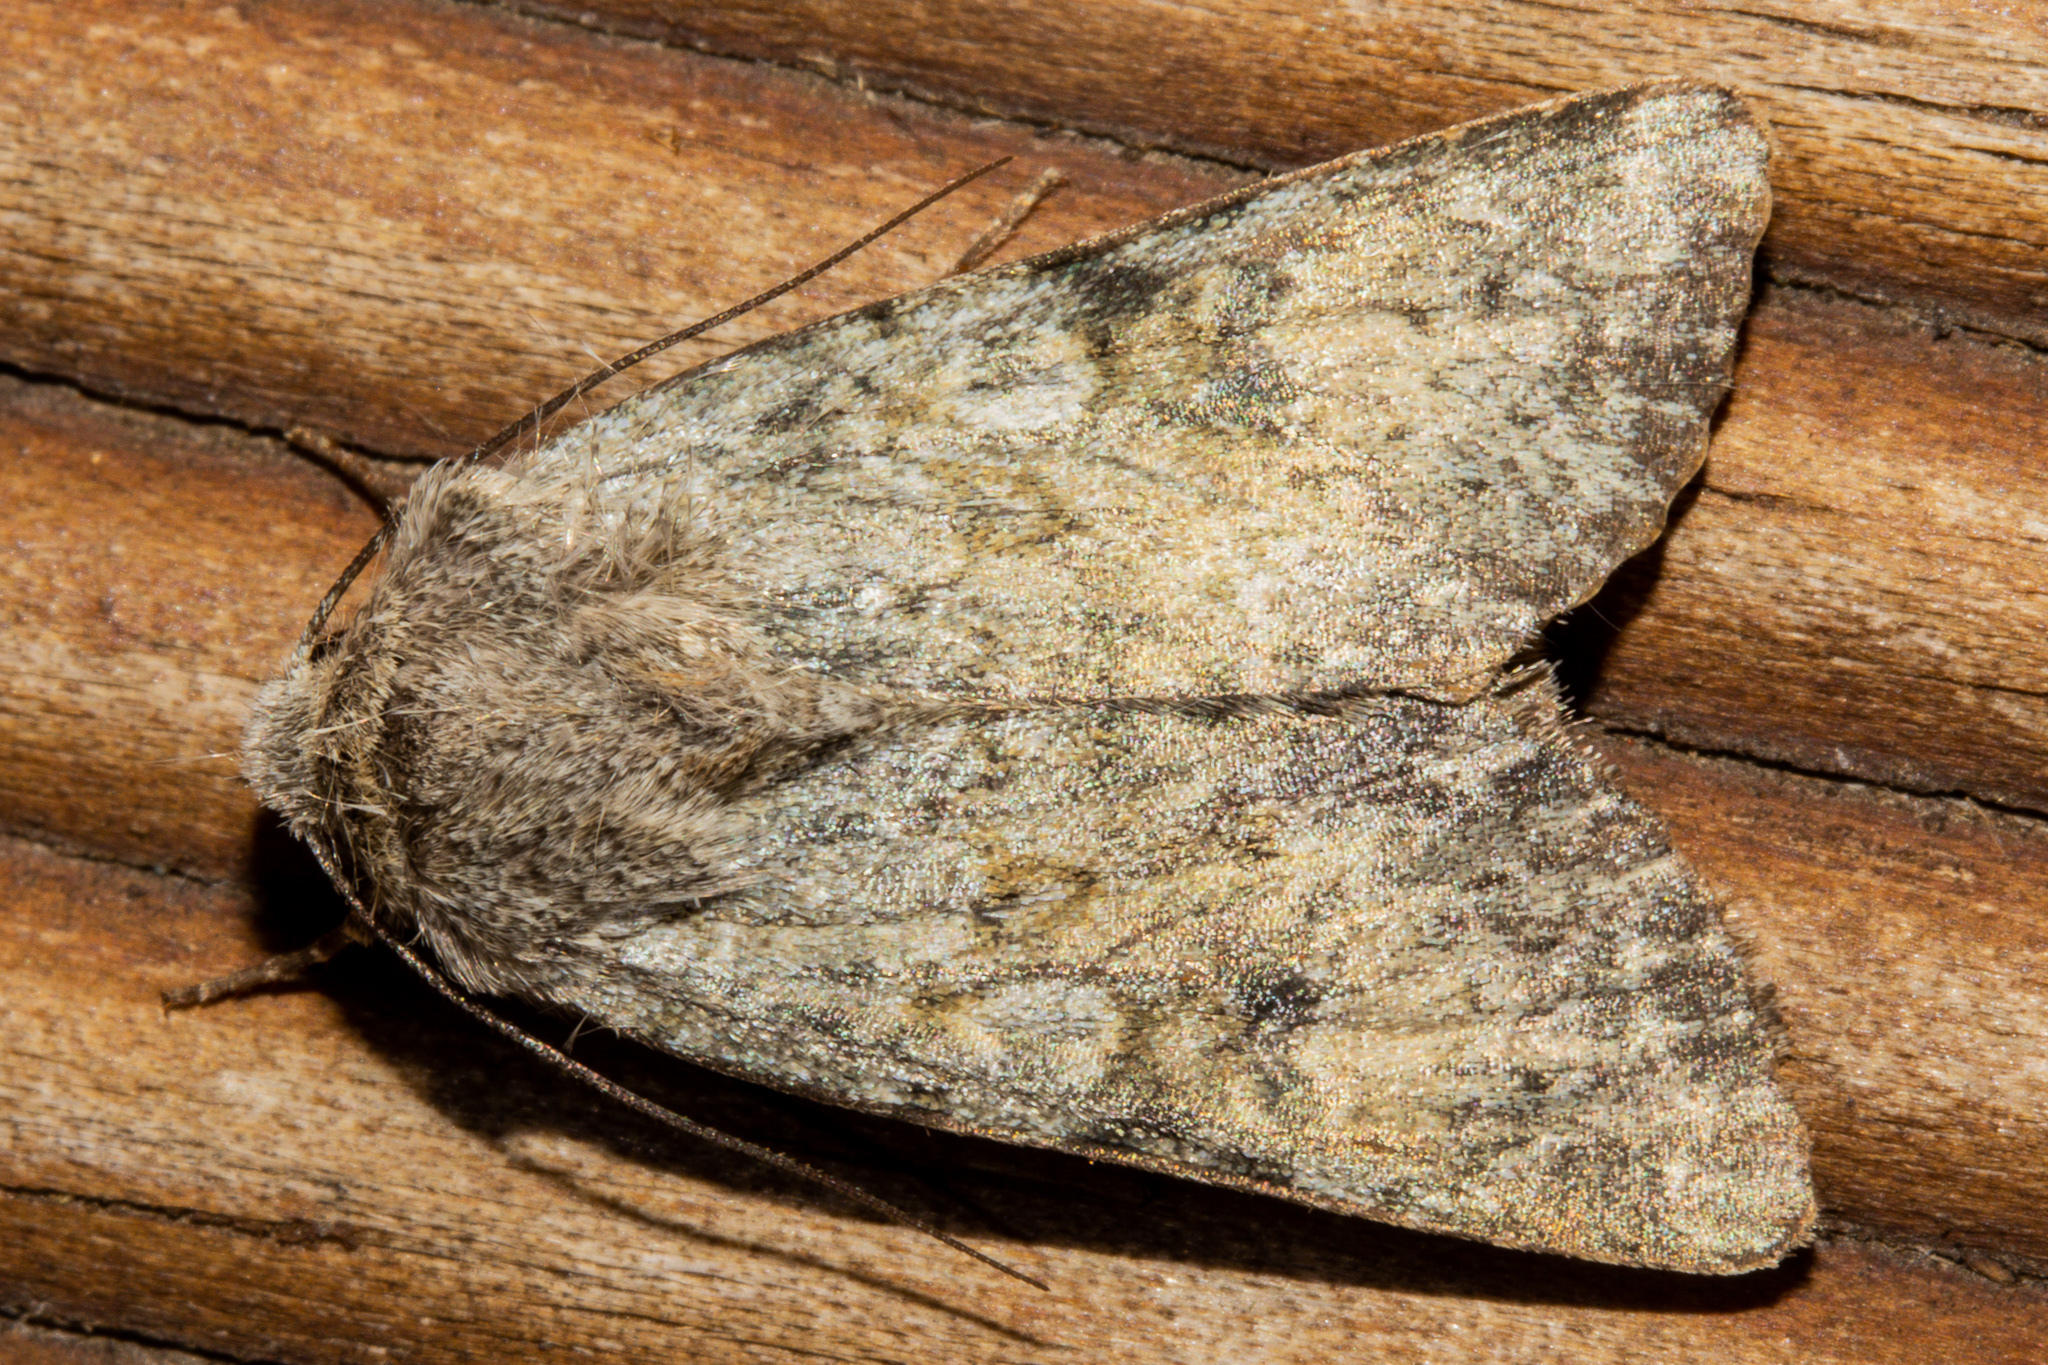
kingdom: Animalia
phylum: Arthropoda
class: Insecta
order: Lepidoptera
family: Noctuidae
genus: Ichneutica
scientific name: Ichneutica cuneata
